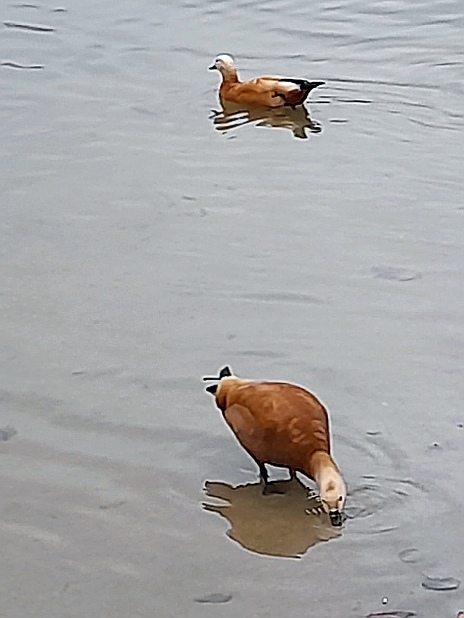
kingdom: Animalia
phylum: Chordata
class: Aves
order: Anseriformes
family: Anatidae
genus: Tadorna
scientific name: Tadorna ferruginea
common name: Ruddy shelduck
